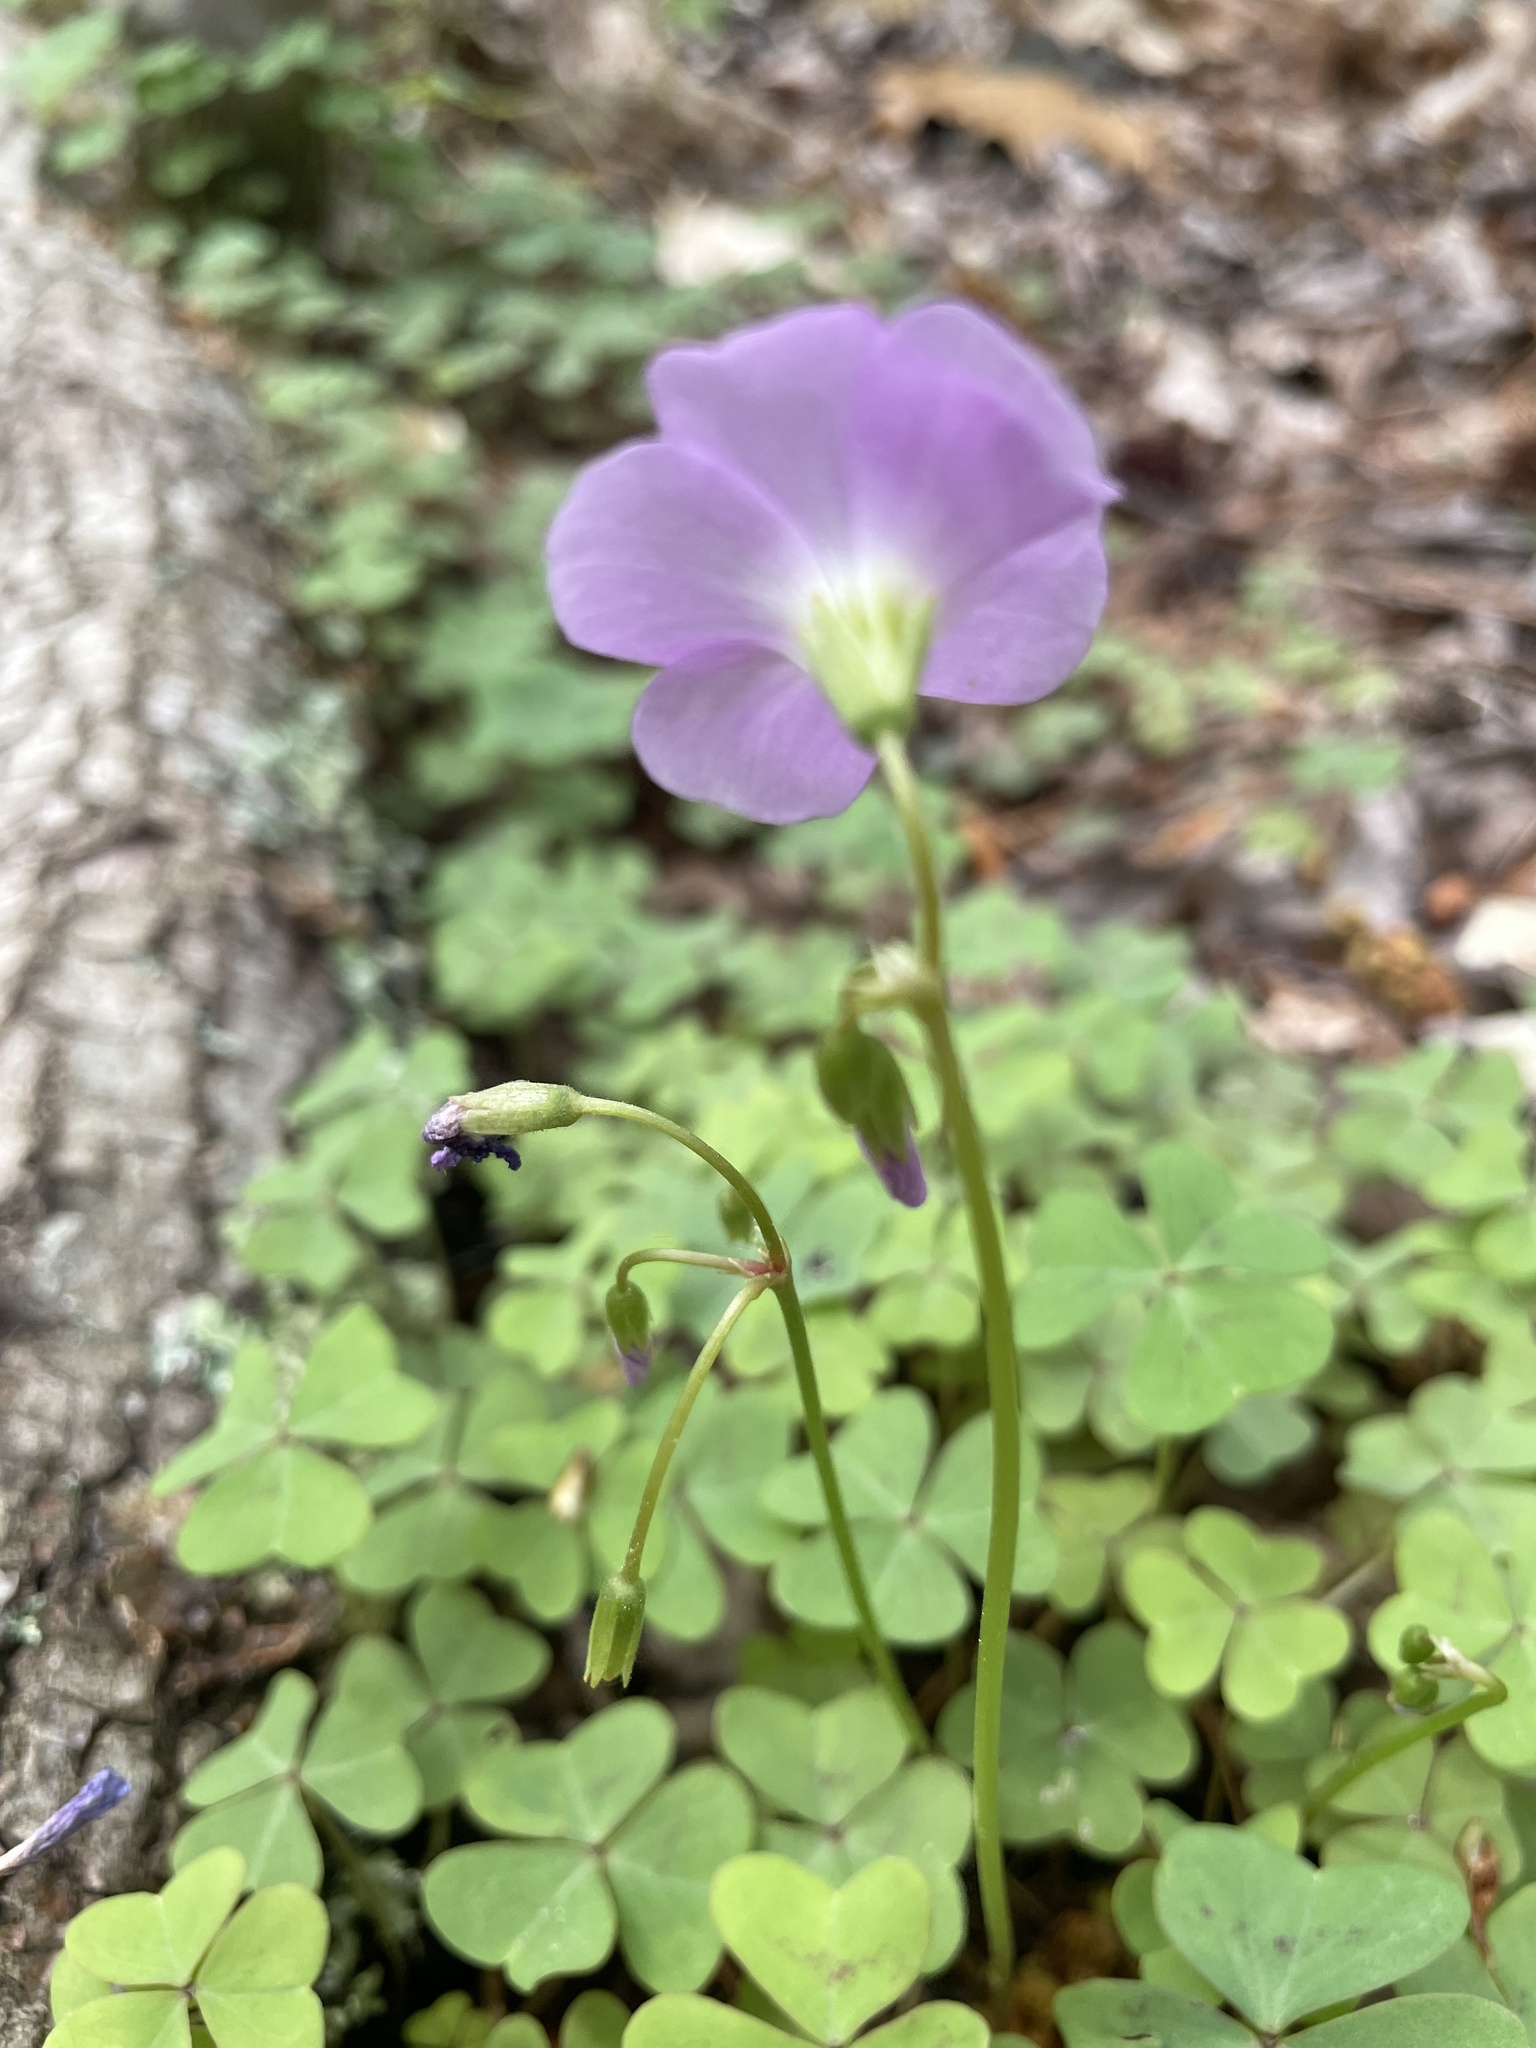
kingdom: Plantae
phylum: Tracheophyta
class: Magnoliopsida
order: Oxalidales
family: Oxalidaceae
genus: Oxalis
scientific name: Oxalis violacea
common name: Violet wood-sorrel
